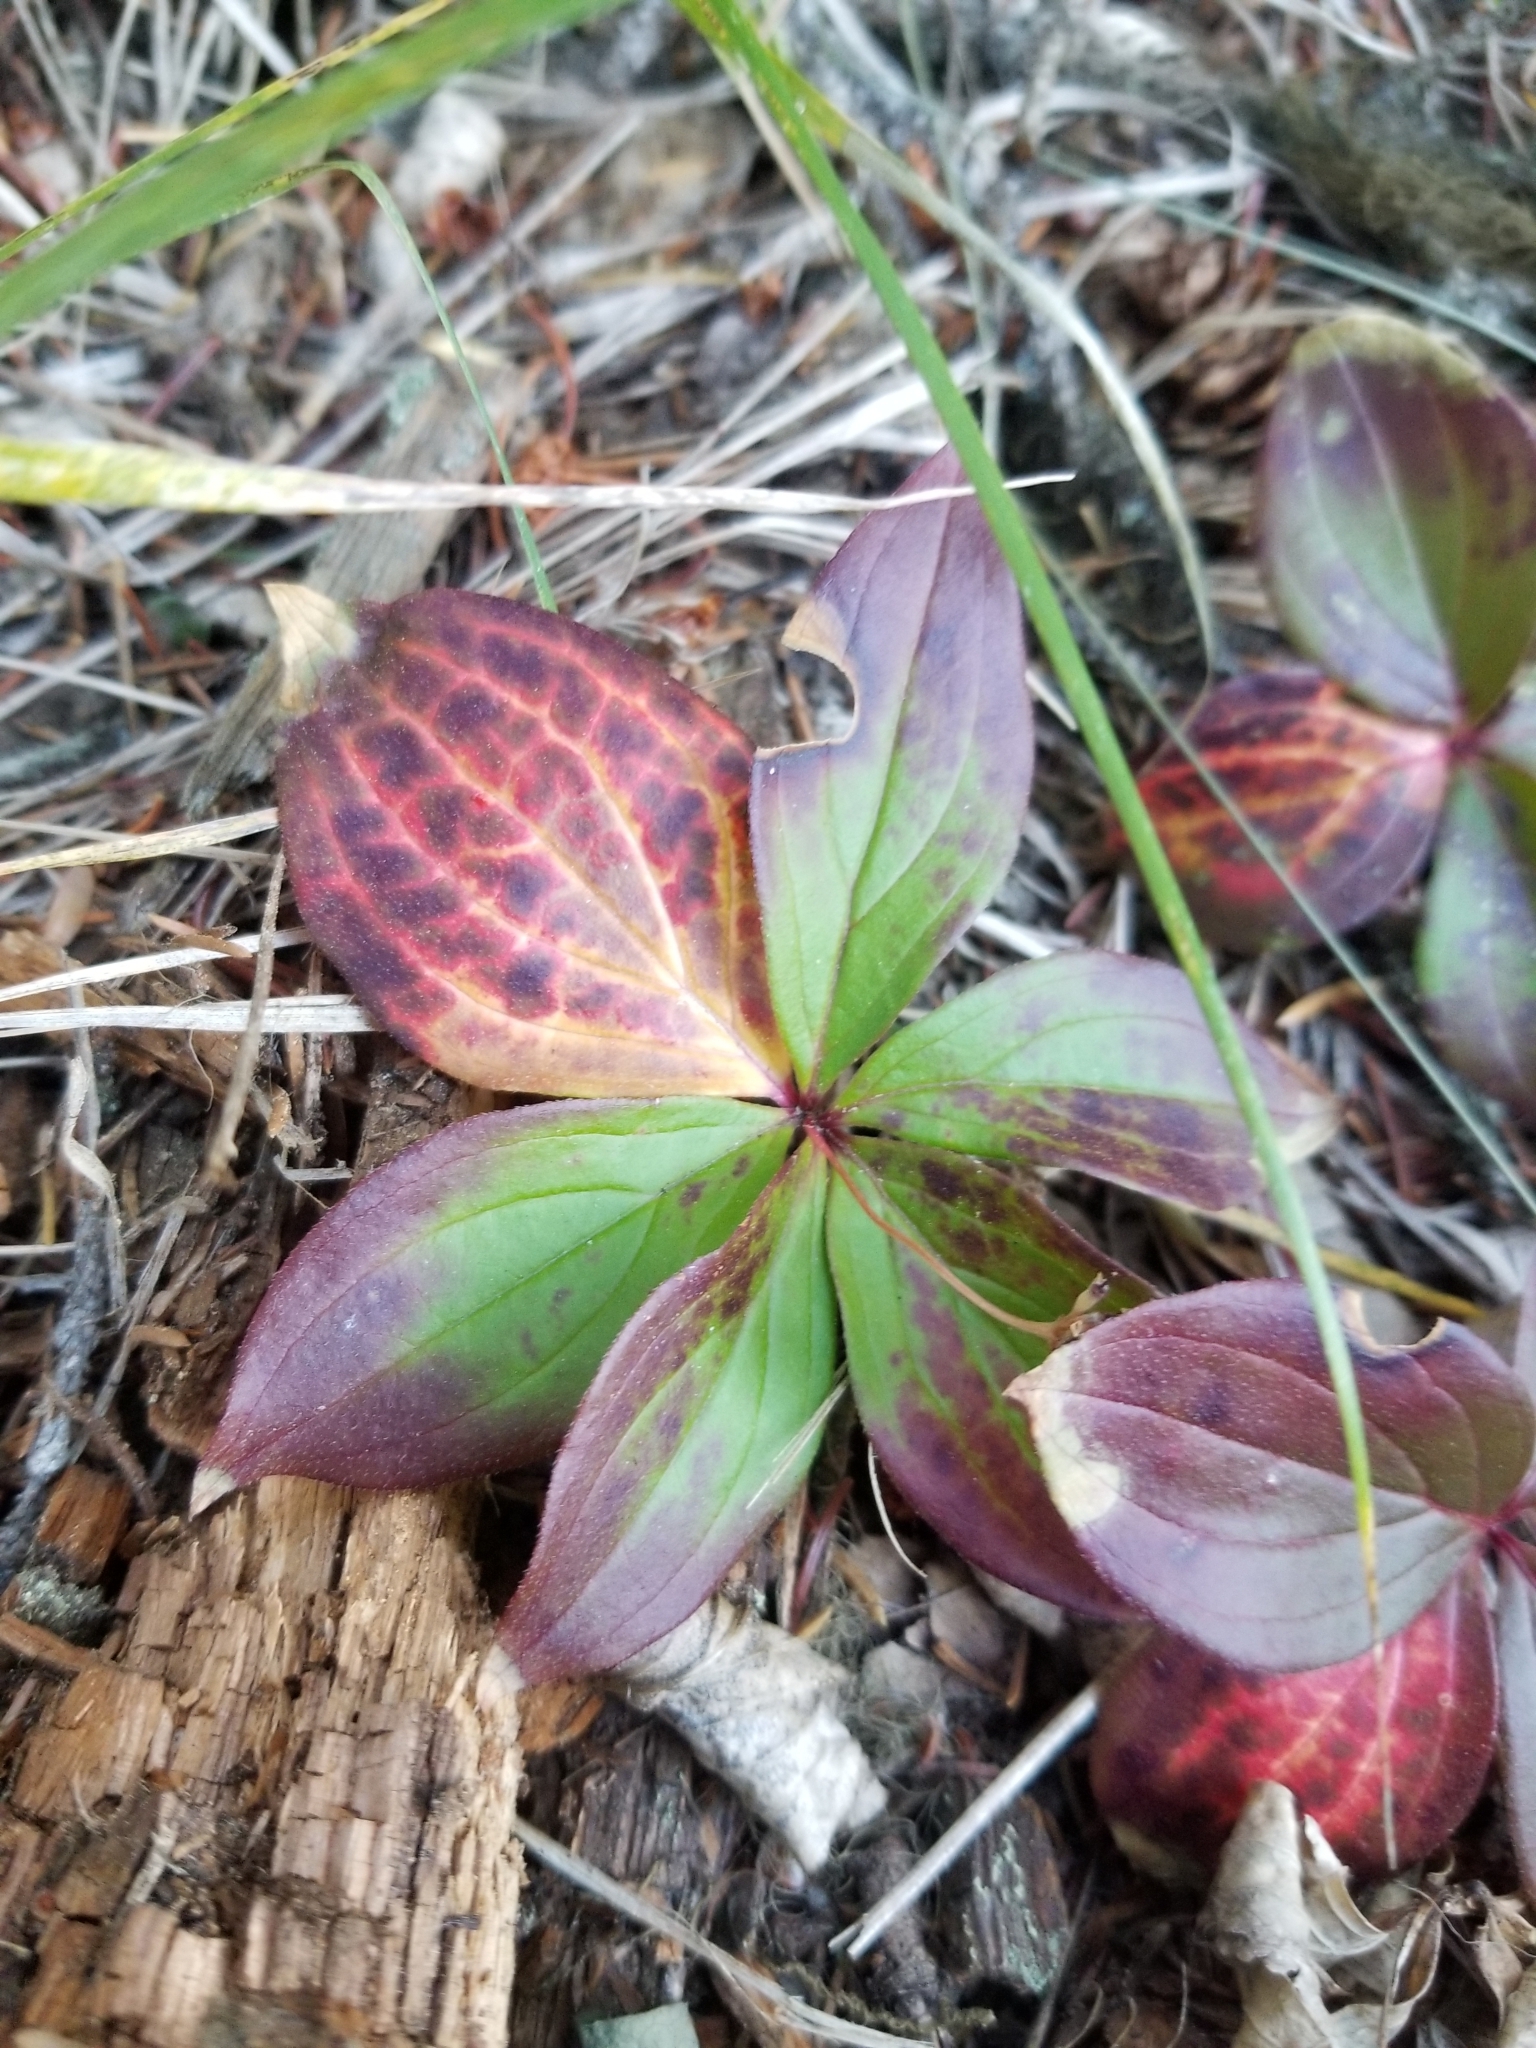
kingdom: Plantae
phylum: Tracheophyta
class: Magnoliopsida
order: Cornales
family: Cornaceae
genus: Cornus
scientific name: Cornus canadensis
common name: Creeping dogwood
